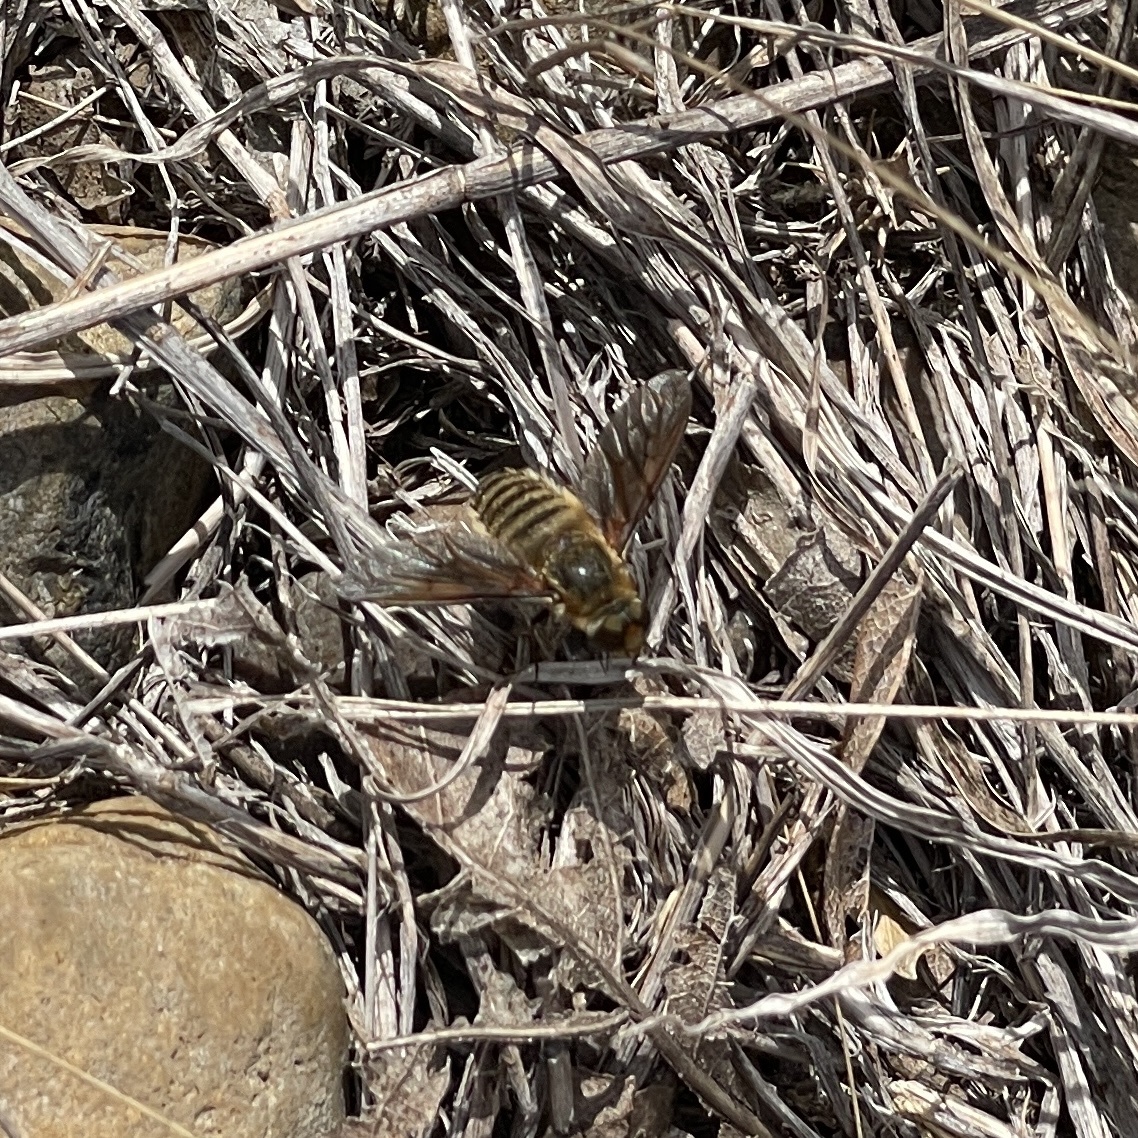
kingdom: Animalia
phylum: Arthropoda
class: Insecta
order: Diptera
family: Bombyliidae
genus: Poecilanthrax
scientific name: Poecilanthrax lucifer
